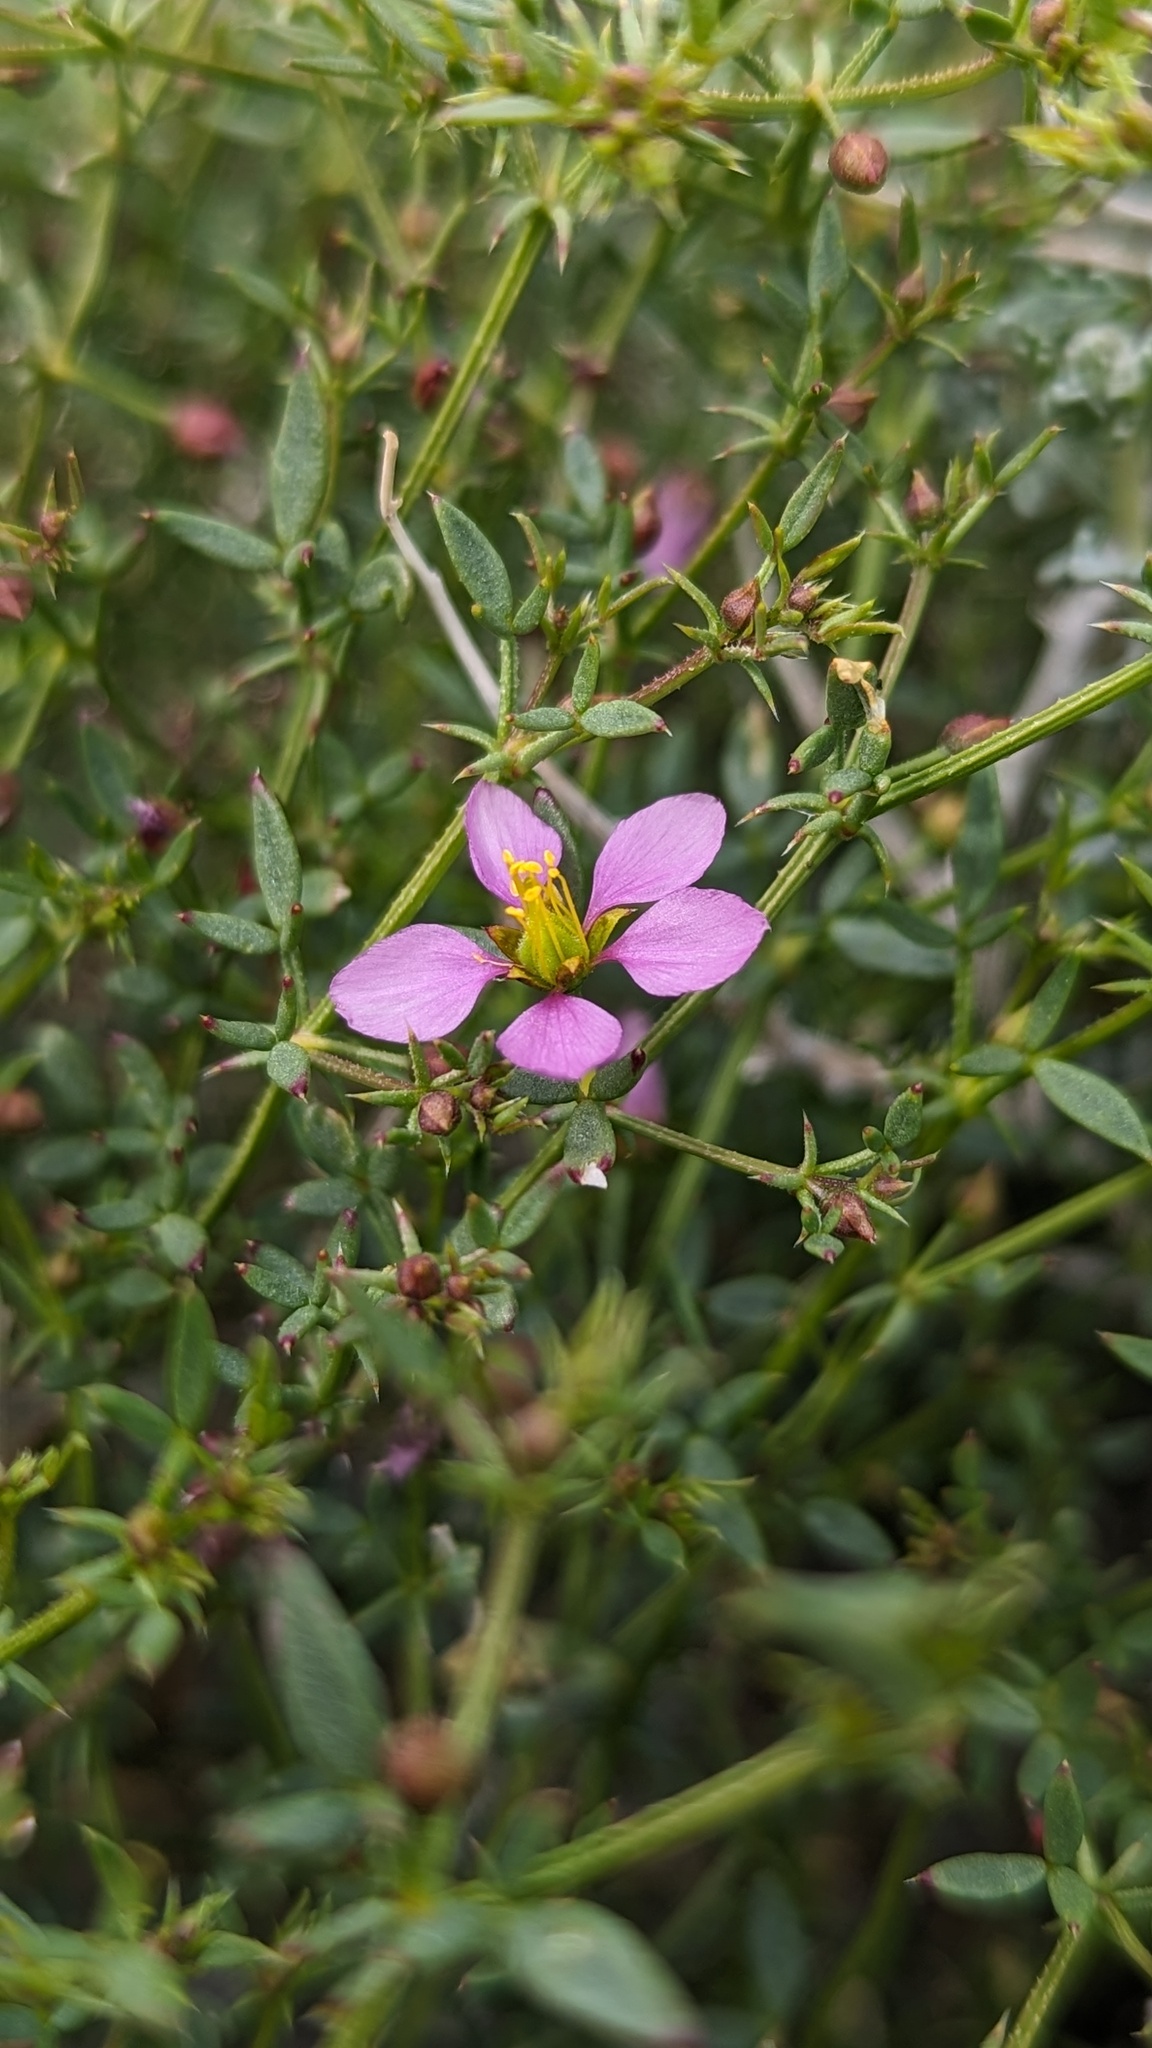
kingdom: Plantae
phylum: Tracheophyta
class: Magnoliopsida
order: Zygophyllales
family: Zygophyllaceae
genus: Fagonia
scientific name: Fagonia laevis
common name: California fagonbush
